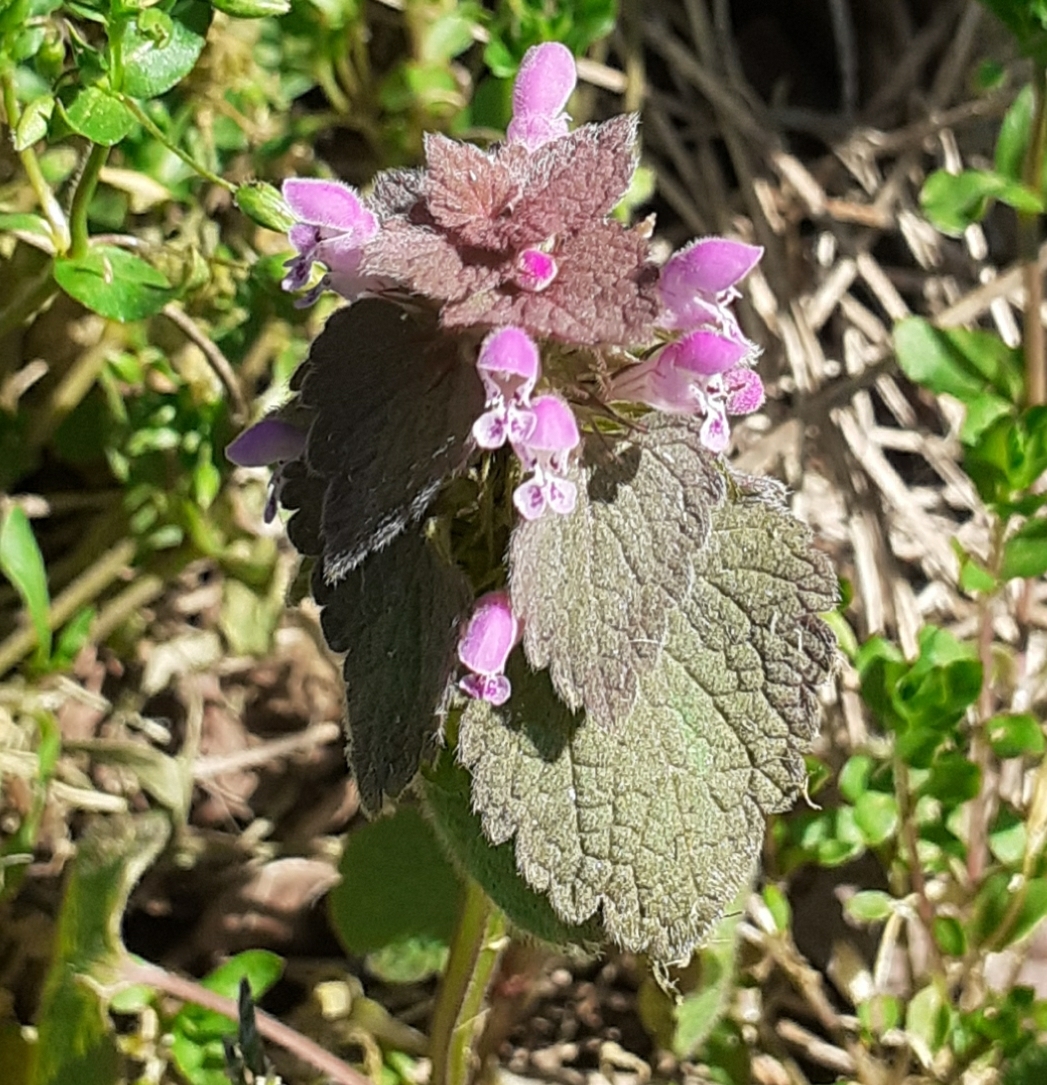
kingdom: Plantae
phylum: Tracheophyta
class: Magnoliopsida
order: Lamiales
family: Lamiaceae
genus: Lamium
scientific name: Lamium purpureum
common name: Red dead-nettle
